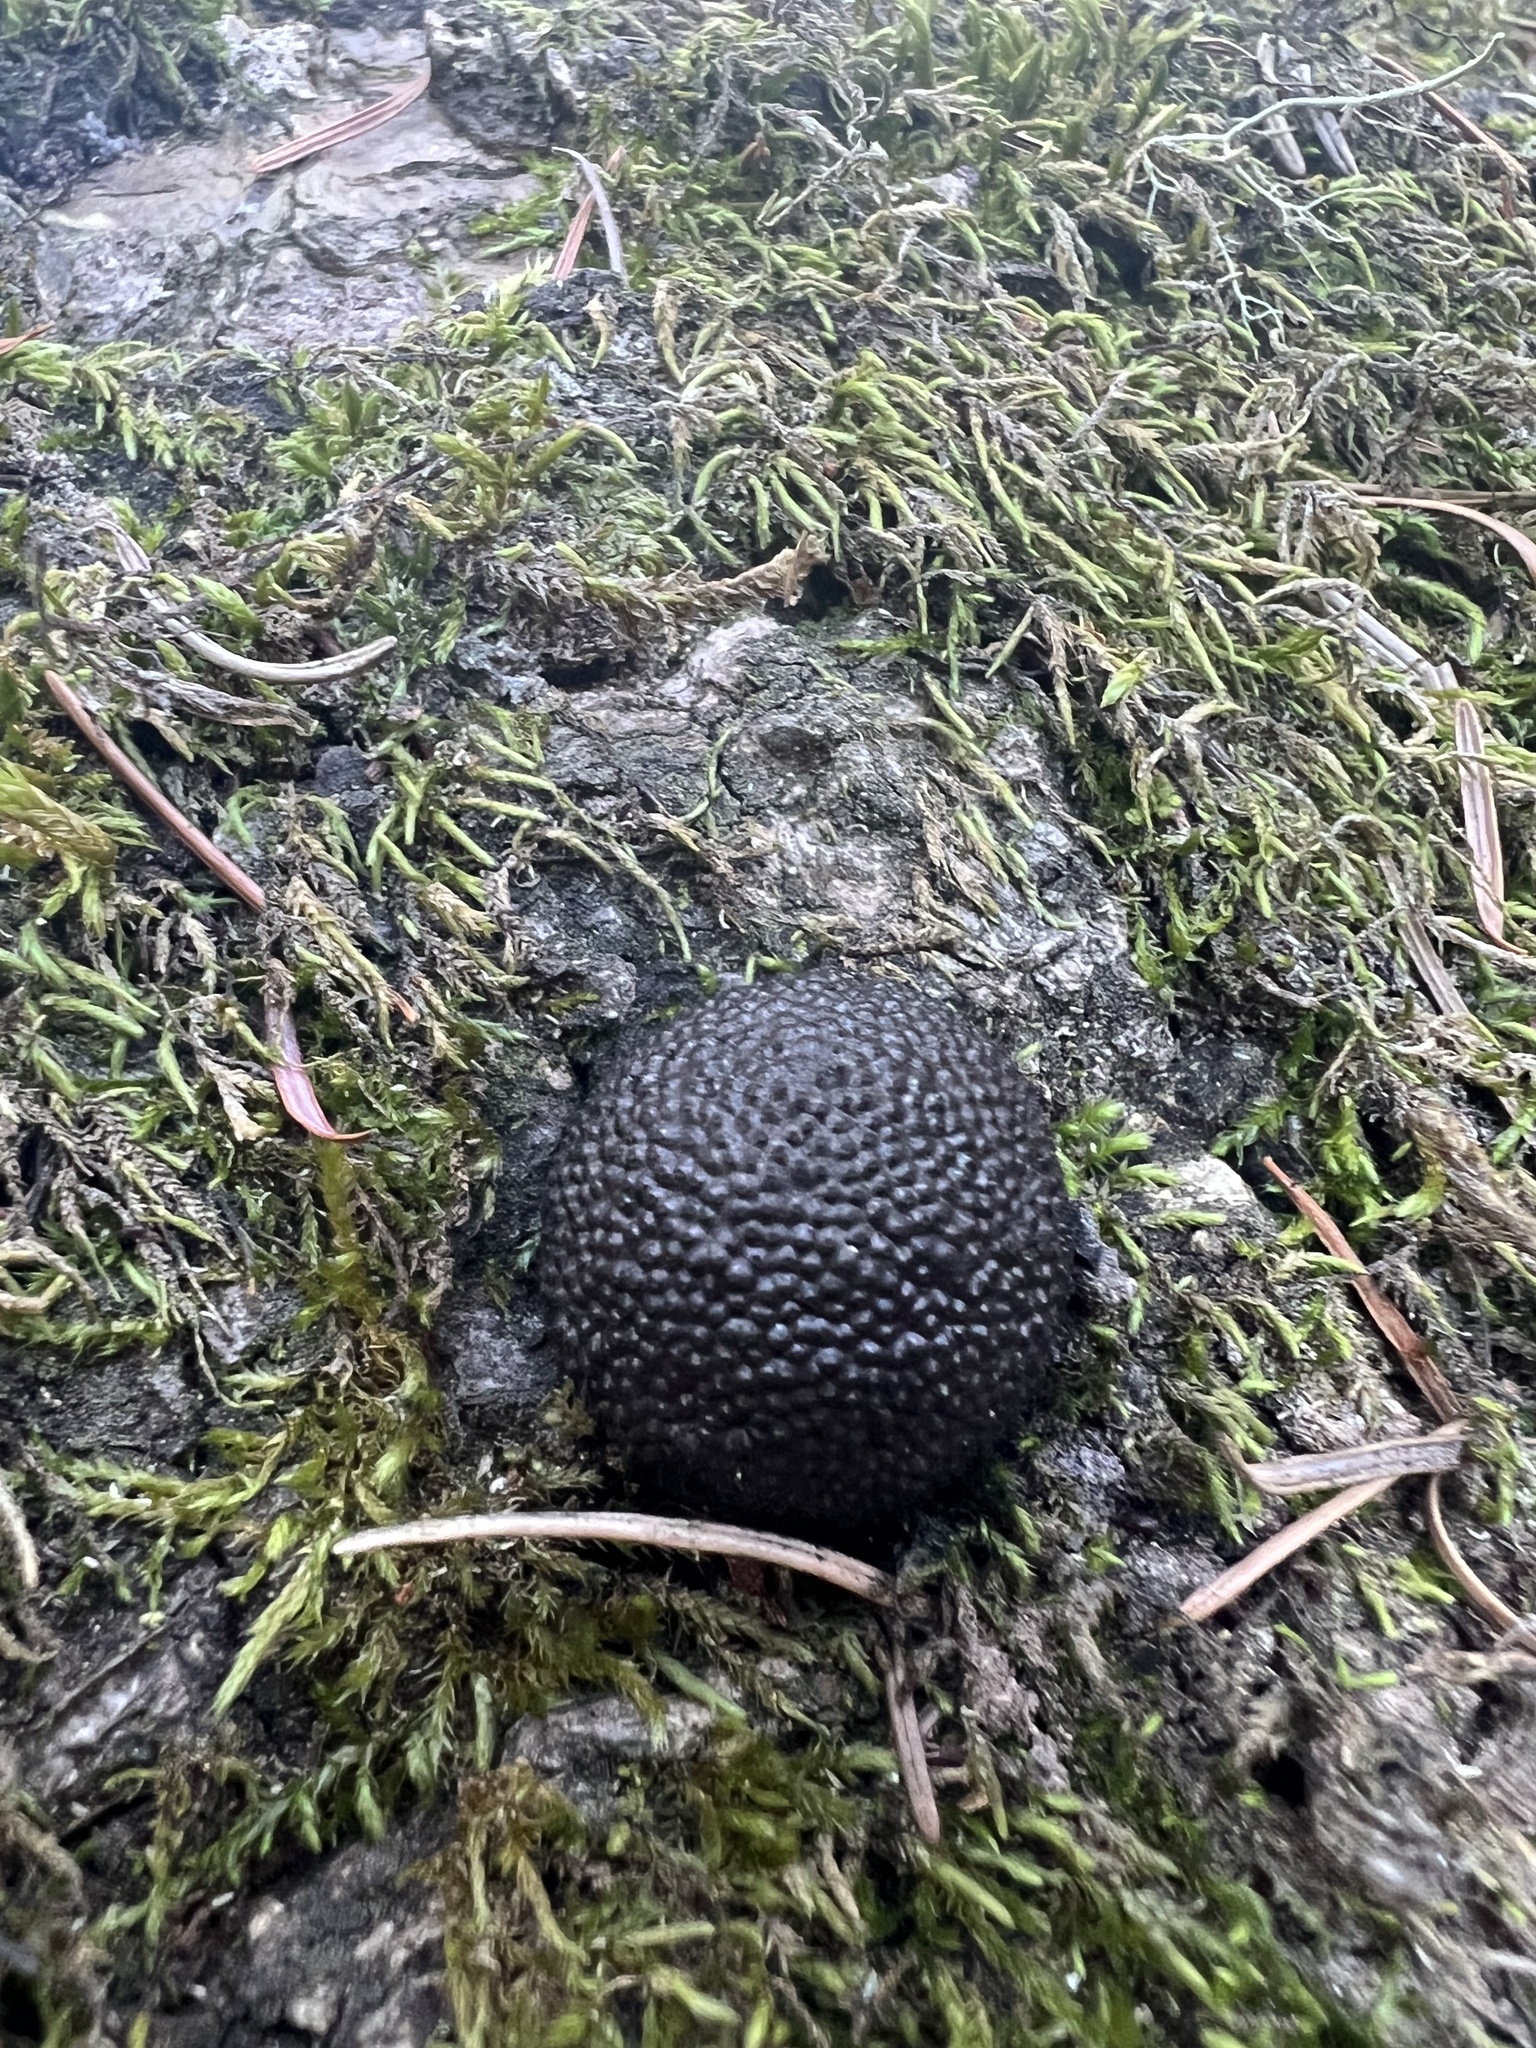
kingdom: Fungi
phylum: Ascomycota
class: Sordariomycetes
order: Xylariales
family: Hypoxylaceae
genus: Annulohypoxylon
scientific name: Annulohypoxylon thouarsianum
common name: Cramp balls
